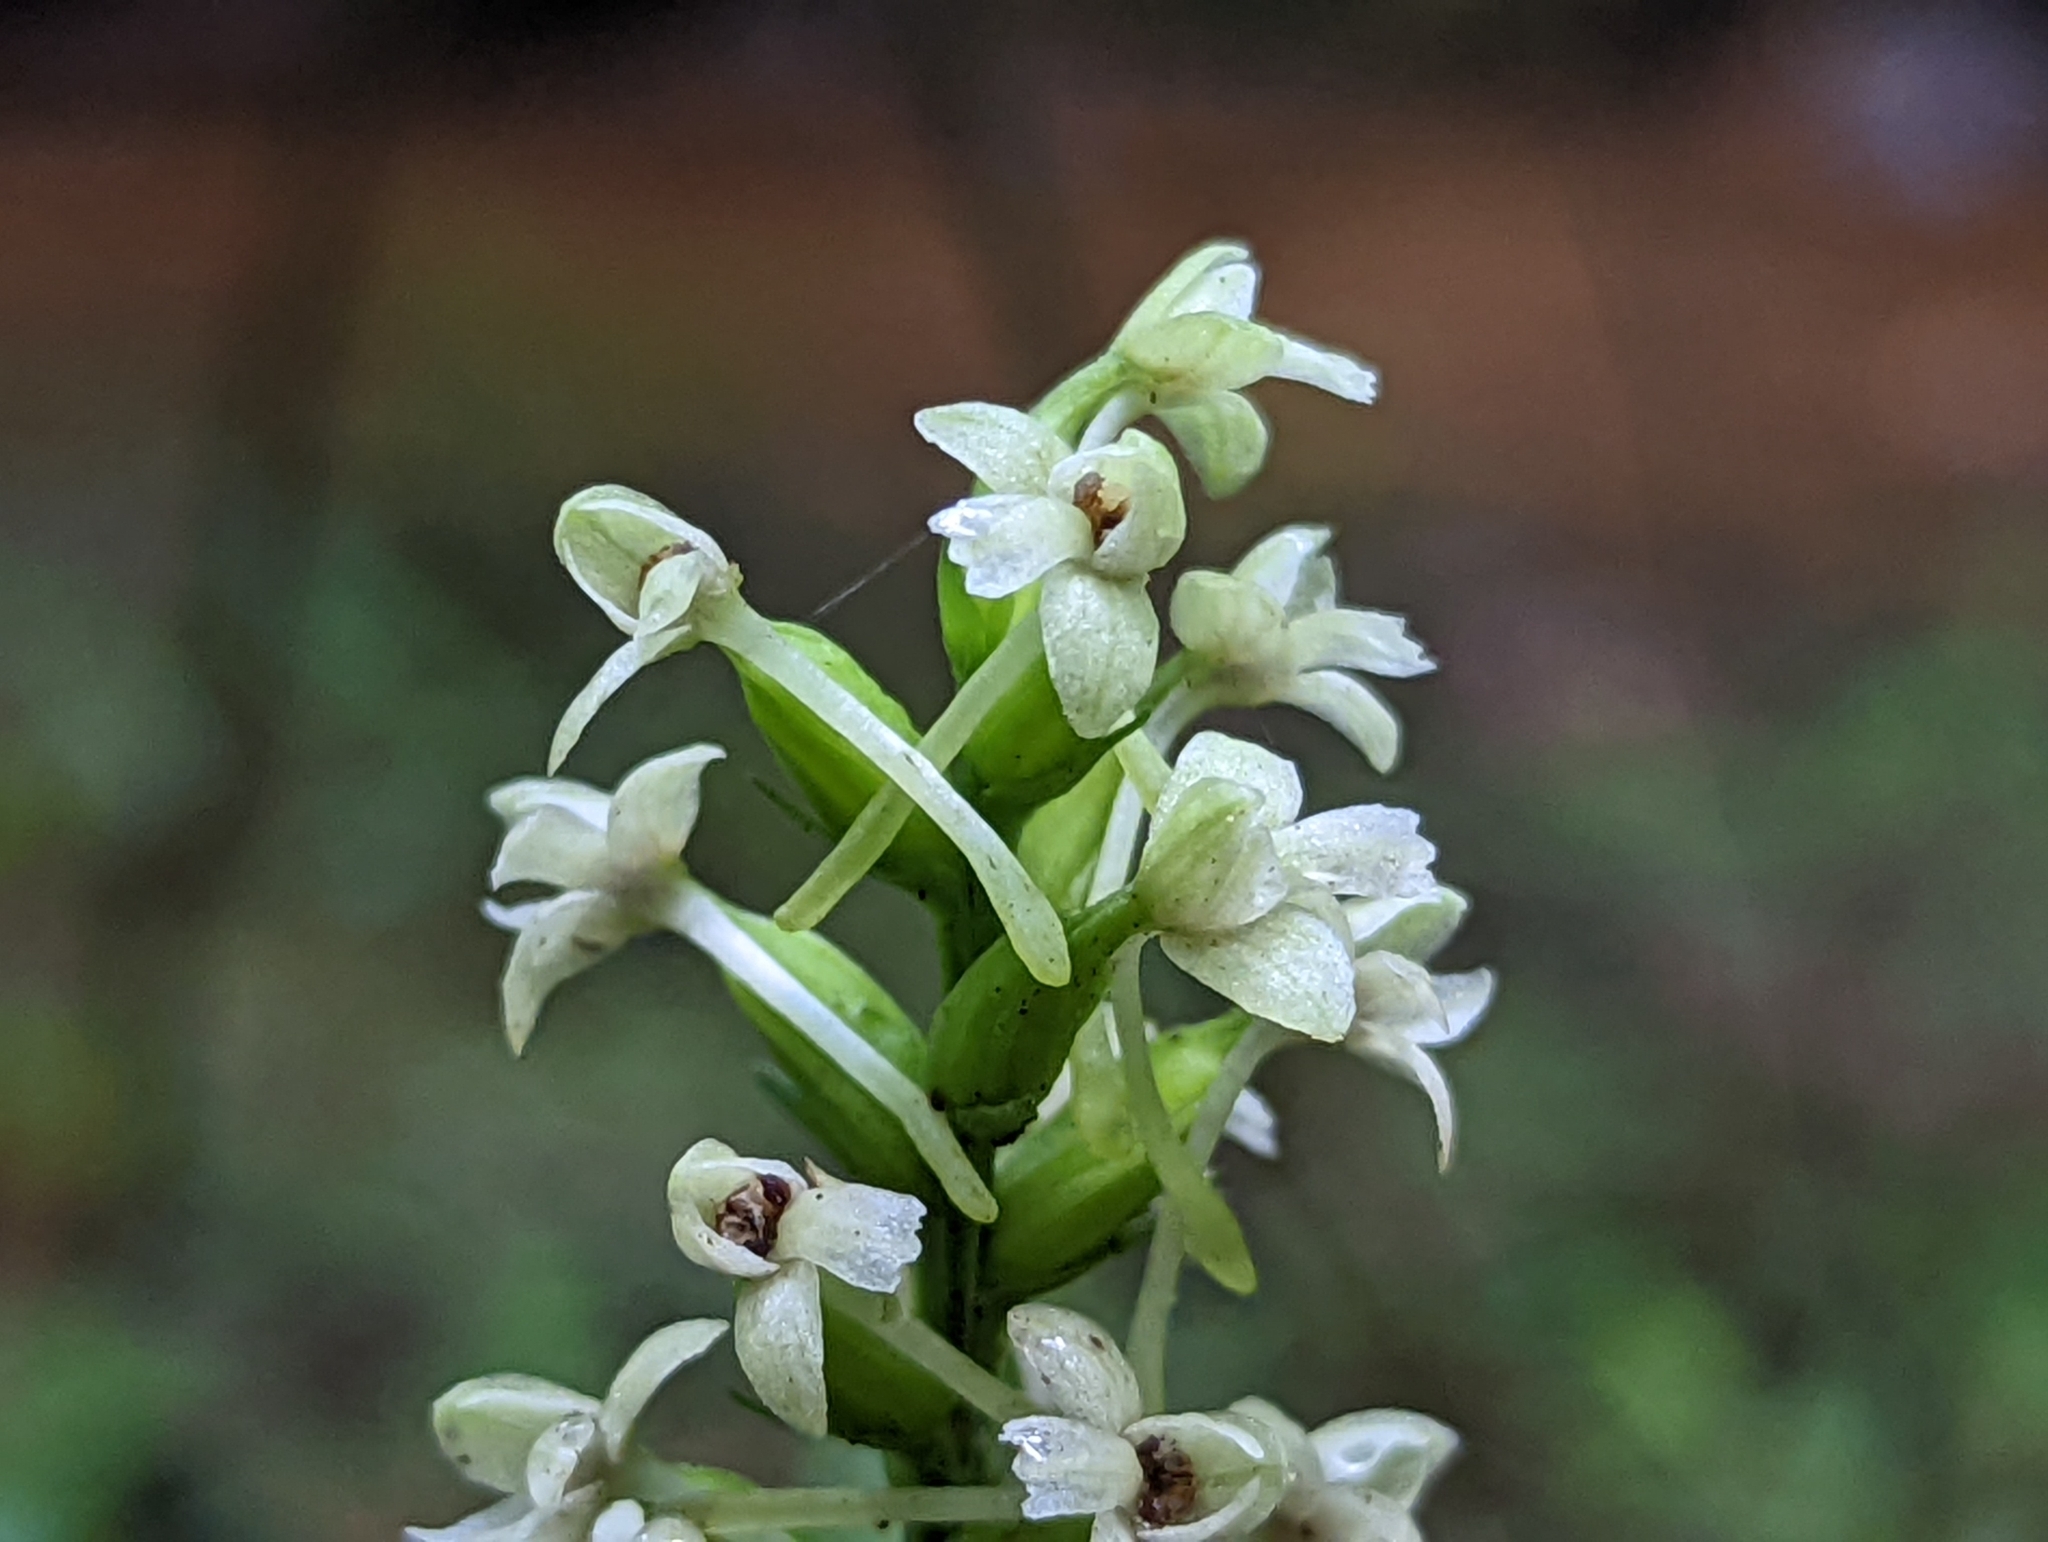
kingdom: Plantae
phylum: Tracheophyta
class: Liliopsida
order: Asparagales
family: Orchidaceae
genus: Platanthera
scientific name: Platanthera clavellata
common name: Club-spur orchid
